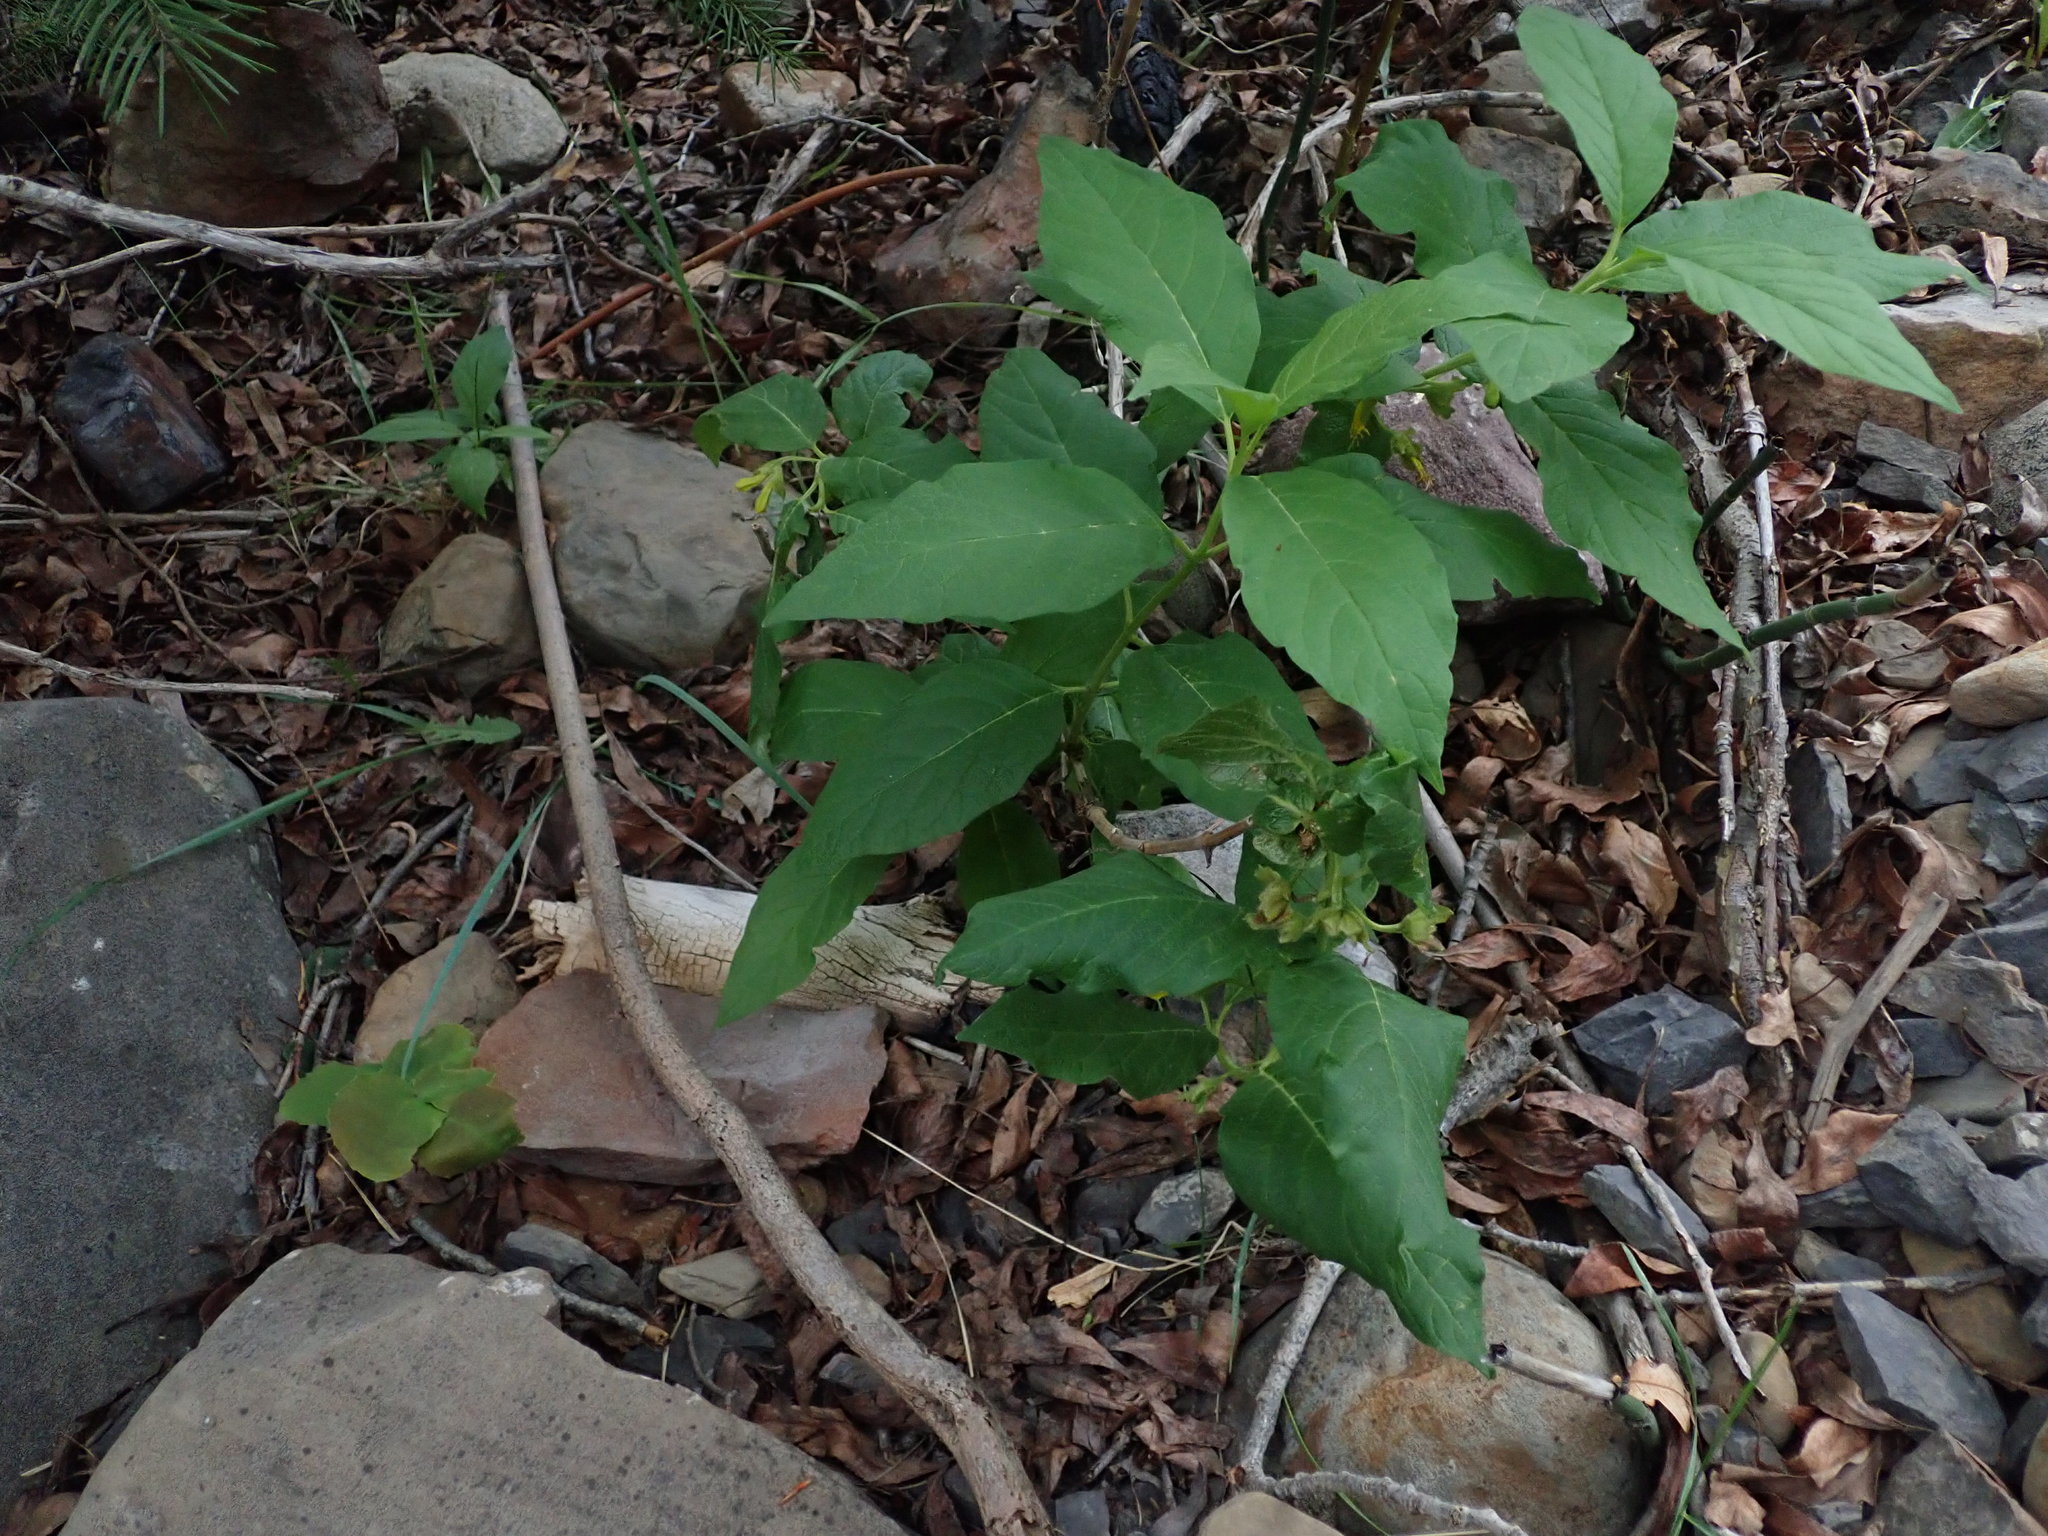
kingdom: Plantae
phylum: Tracheophyta
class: Magnoliopsida
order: Dipsacales
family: Caprifoliaceae
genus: Lonicera
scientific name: Lonicera involucrata
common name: Californian honeysuckle
